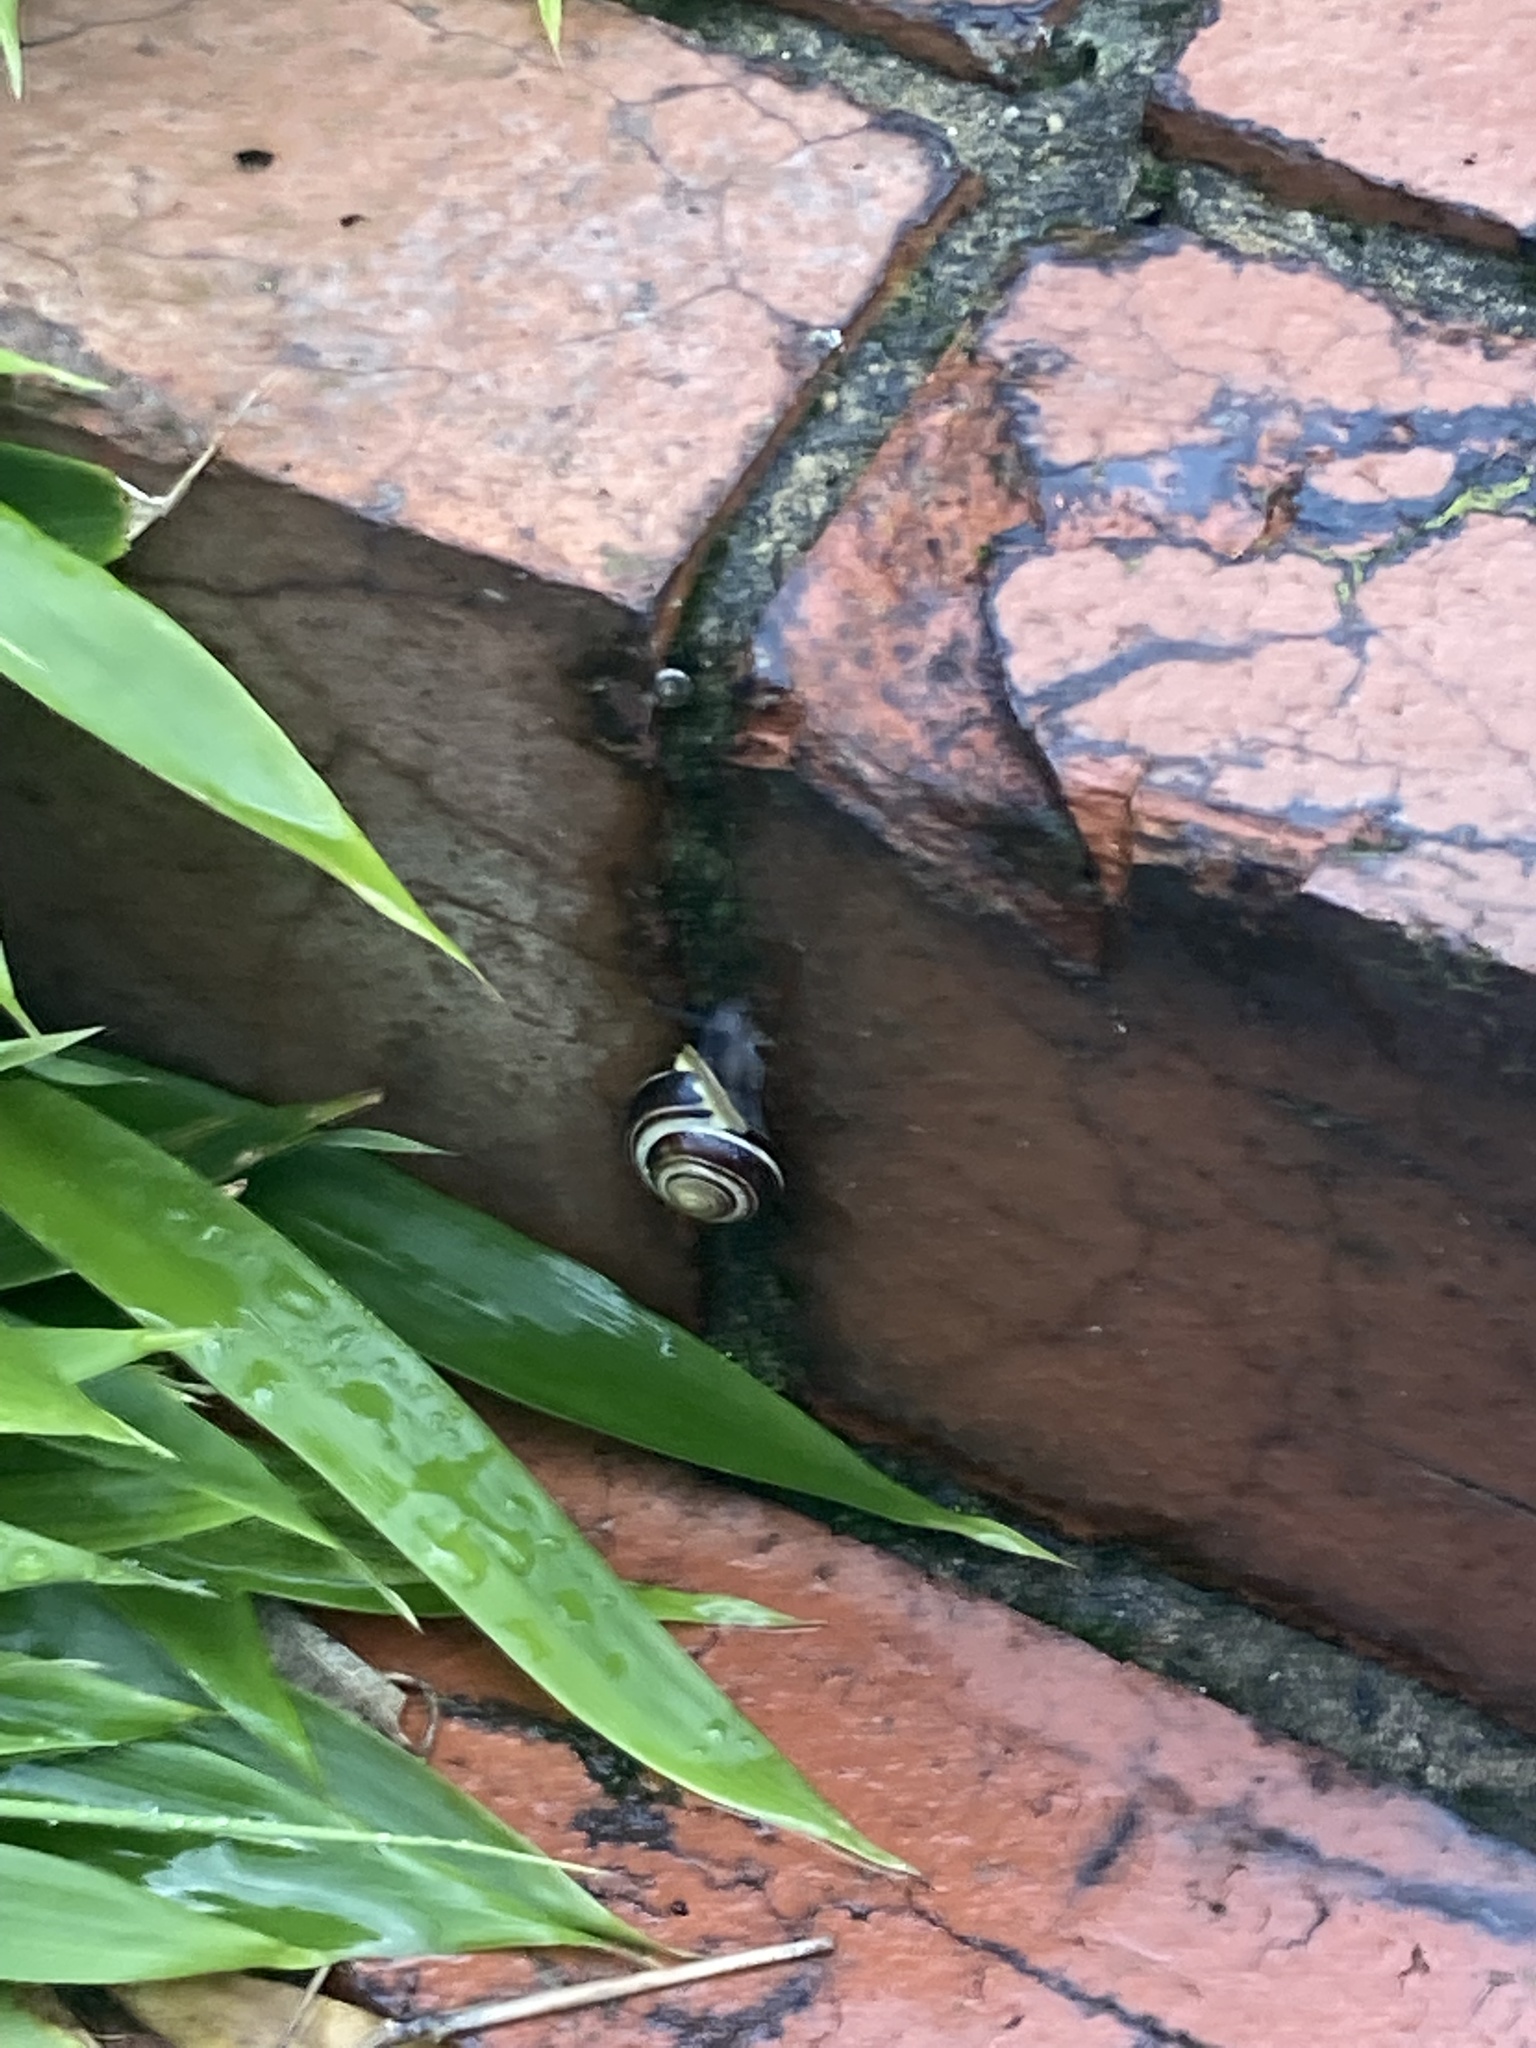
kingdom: Animalia
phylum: Mollusca
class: Gastropoda
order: Stylommatophora
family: Helicidae
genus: Cepaea
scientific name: Cepaea hortensis
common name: White-lip gardensnail
